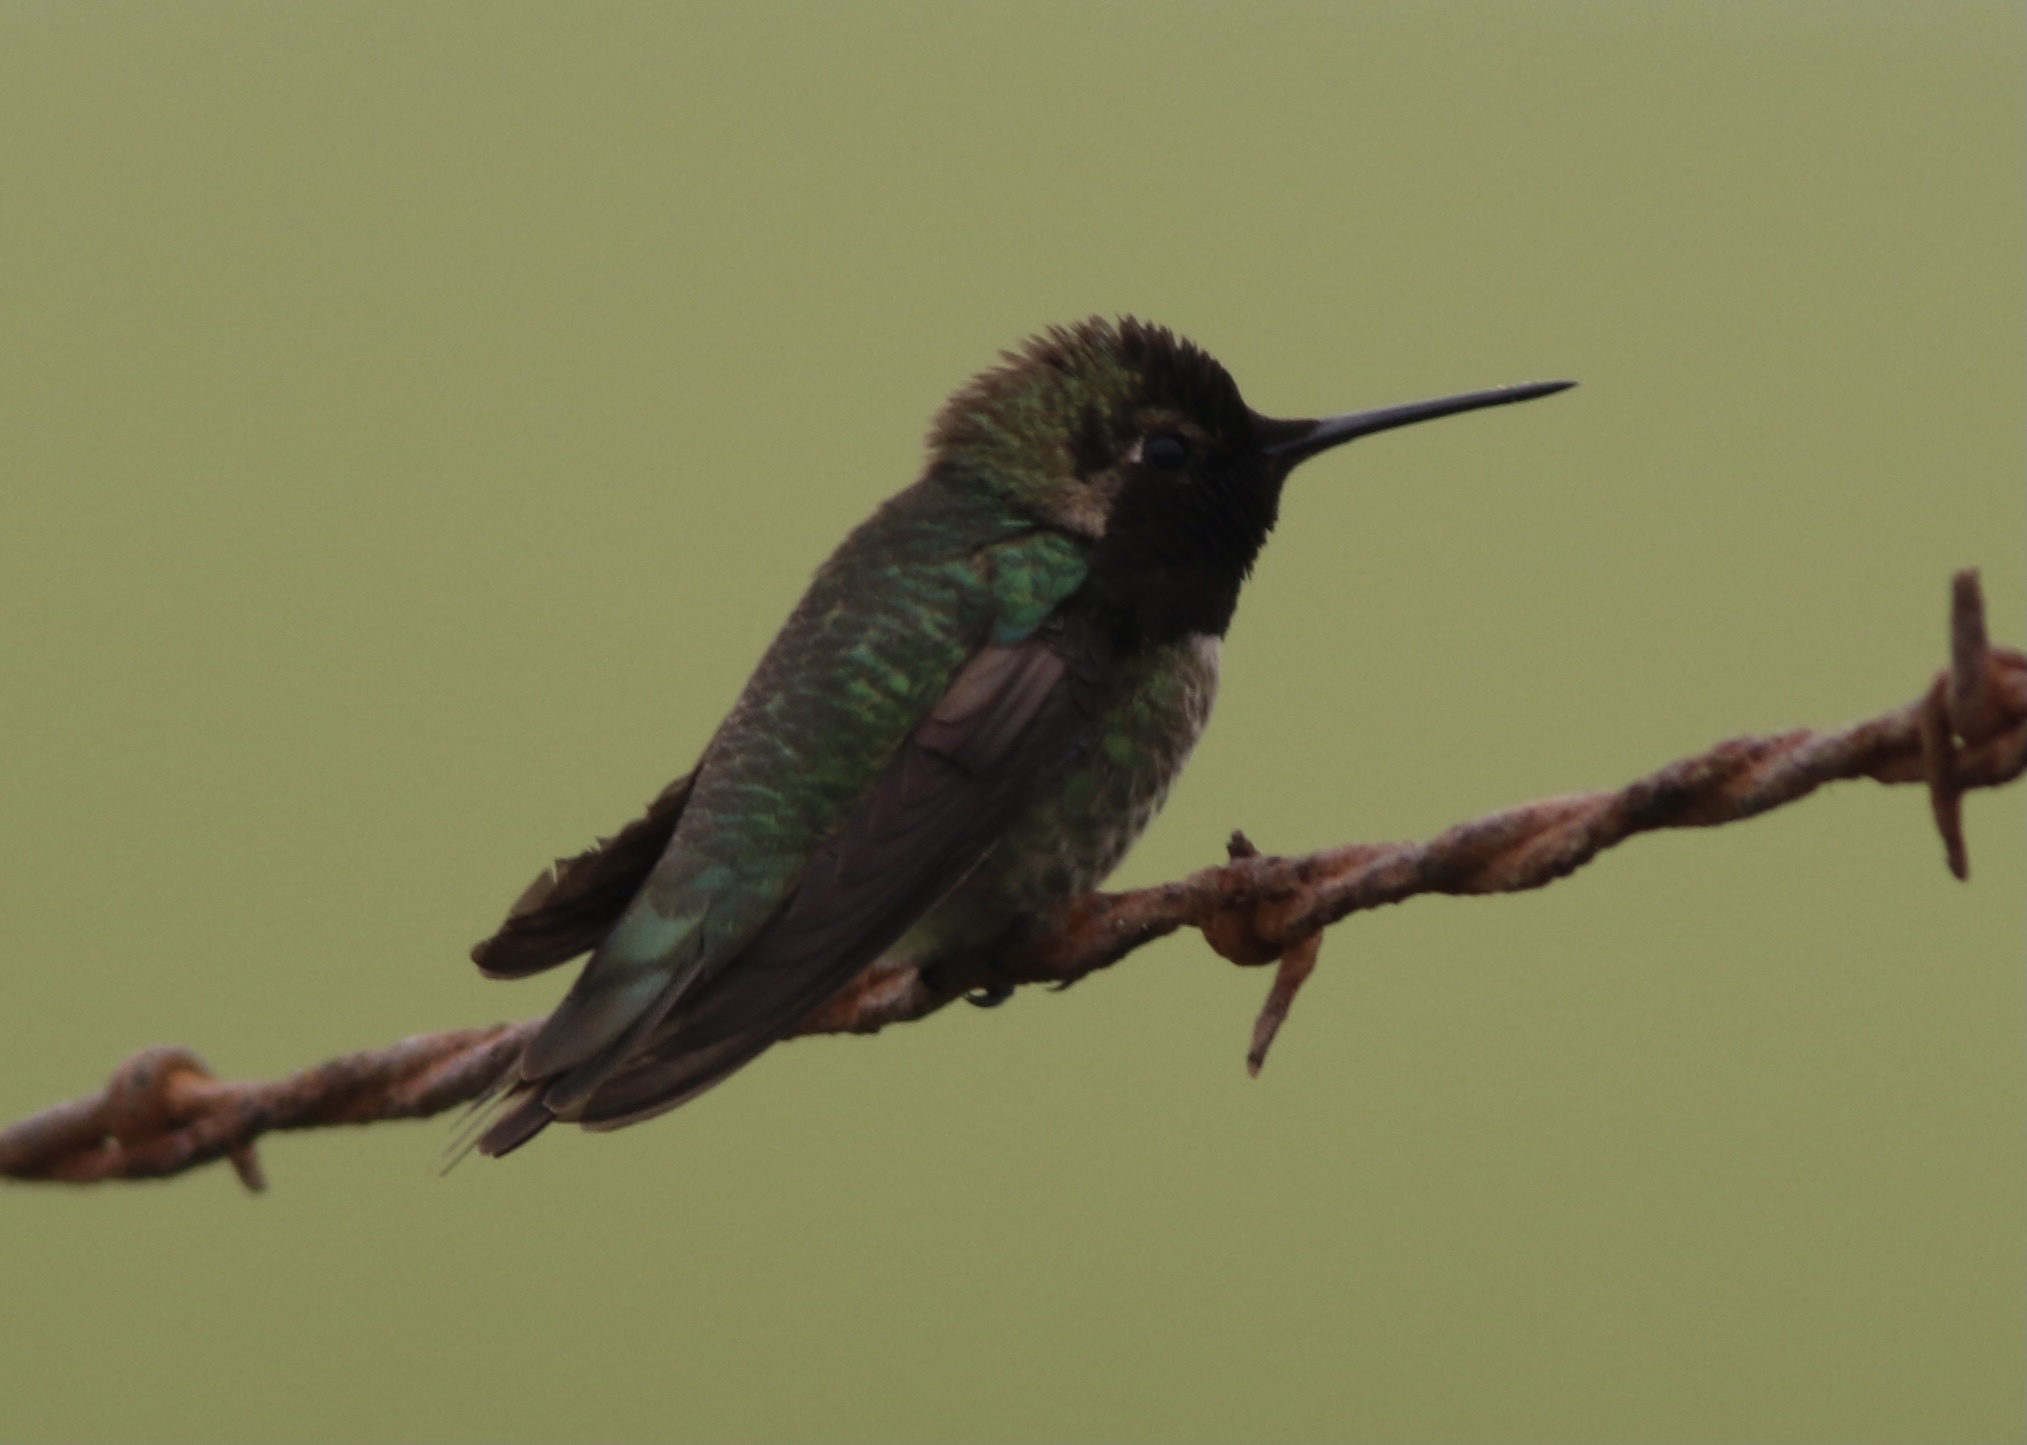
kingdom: Animalia
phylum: Chordata
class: Aves
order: Apodiformes
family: Trochilidae
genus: Calypte
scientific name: Calypte anna
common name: Anna's hummingbird
